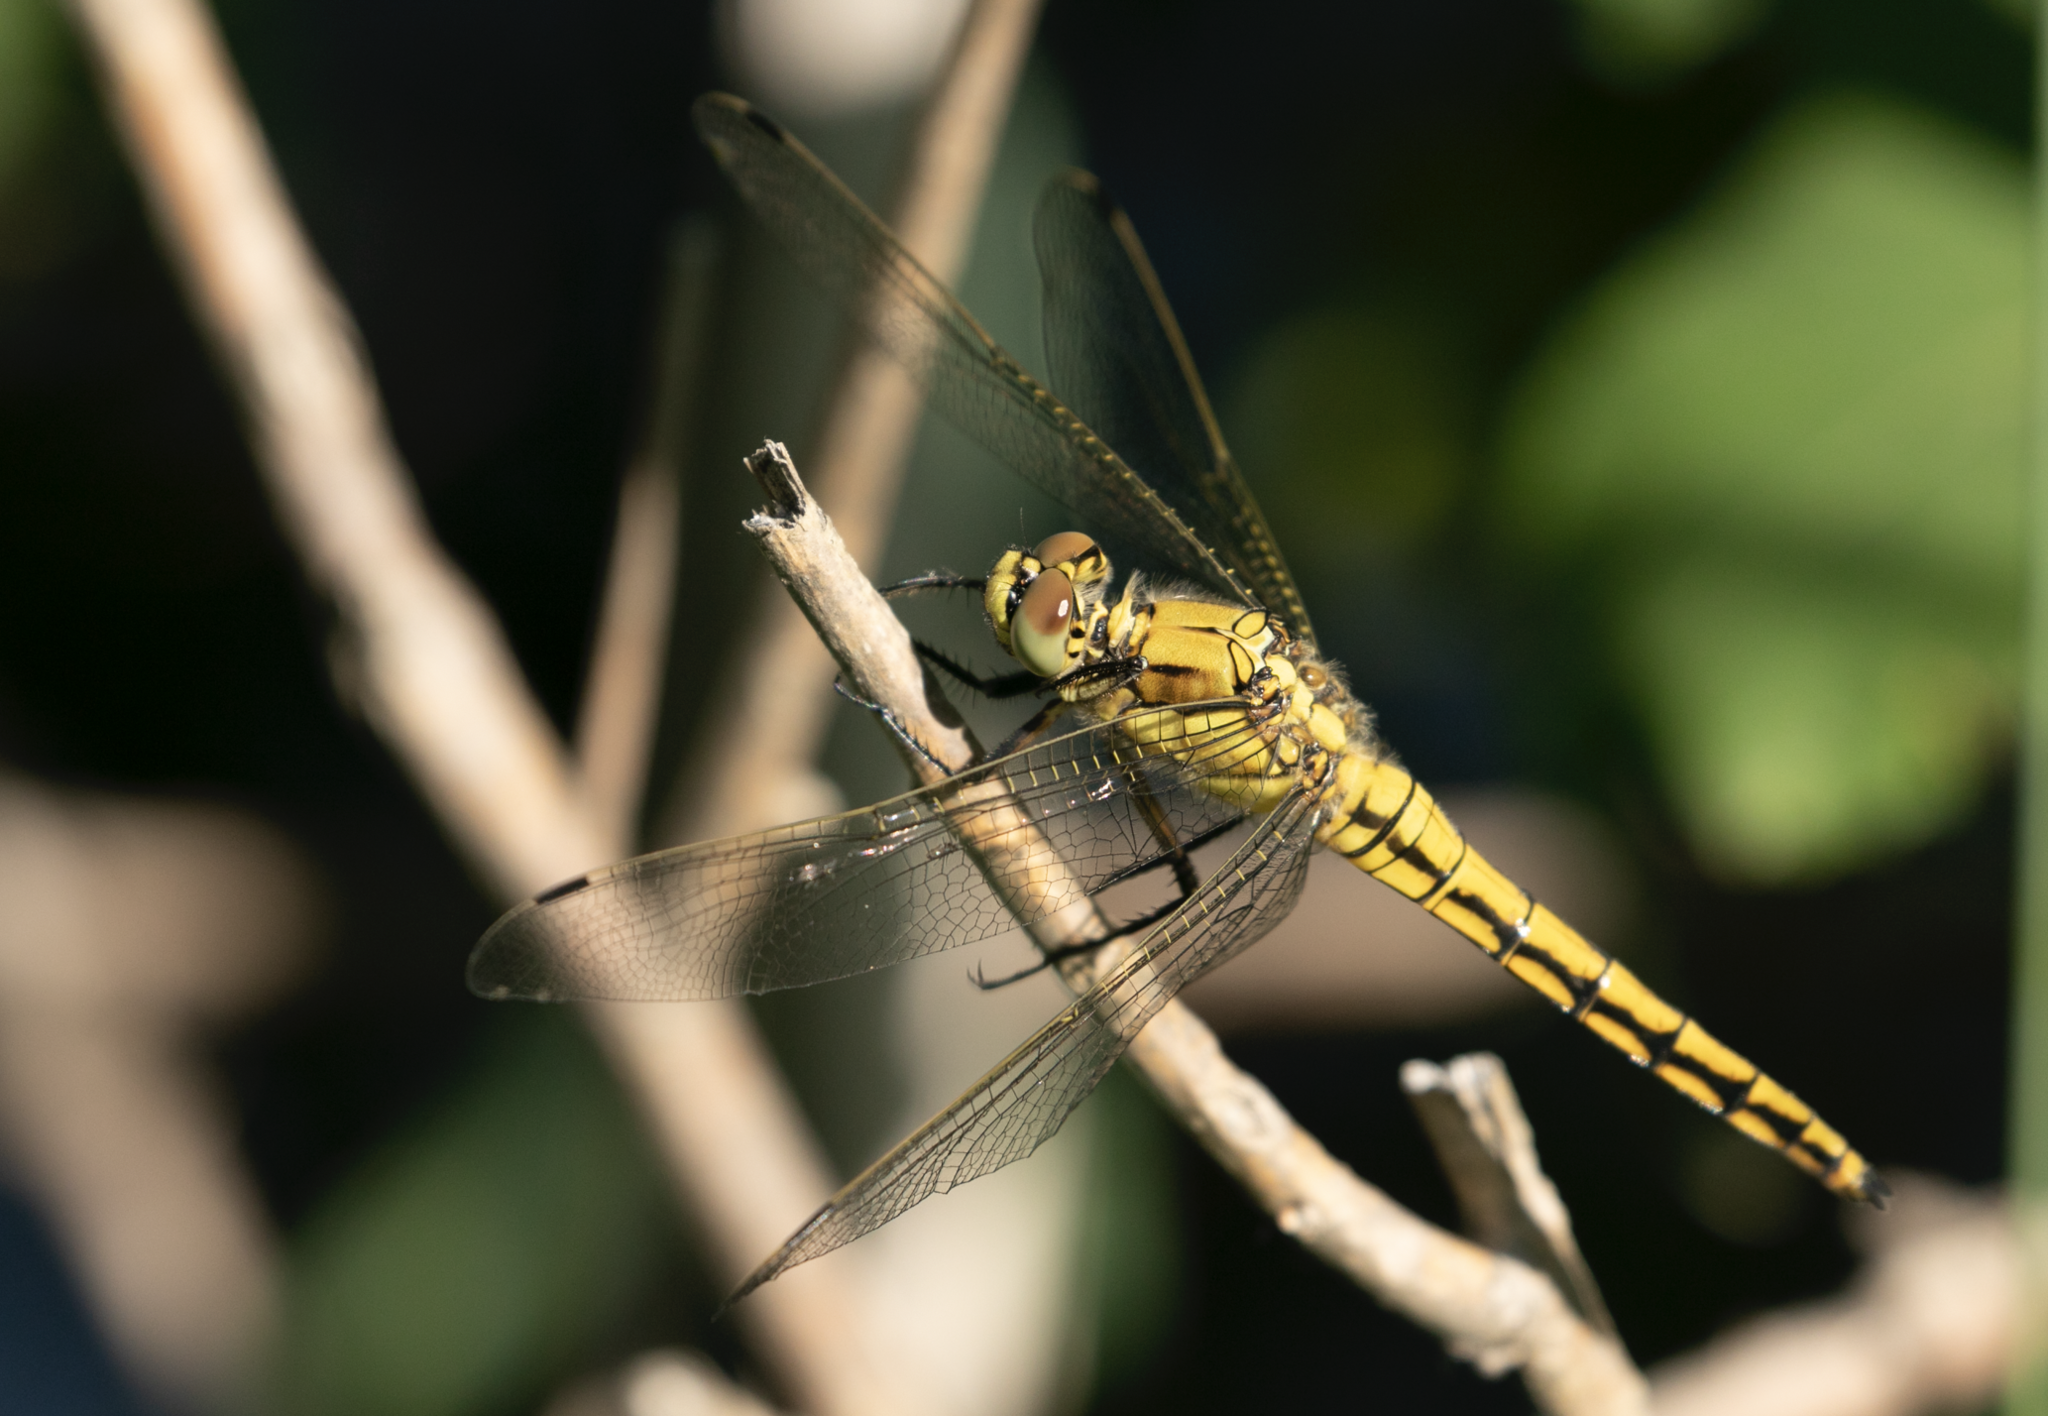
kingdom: Animalia
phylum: Arthropoda
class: Insecta
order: Odonata
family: Libellulidae
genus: Orthetrum
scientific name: Orthetrum cancellatum
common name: Black-tailed skimmer
